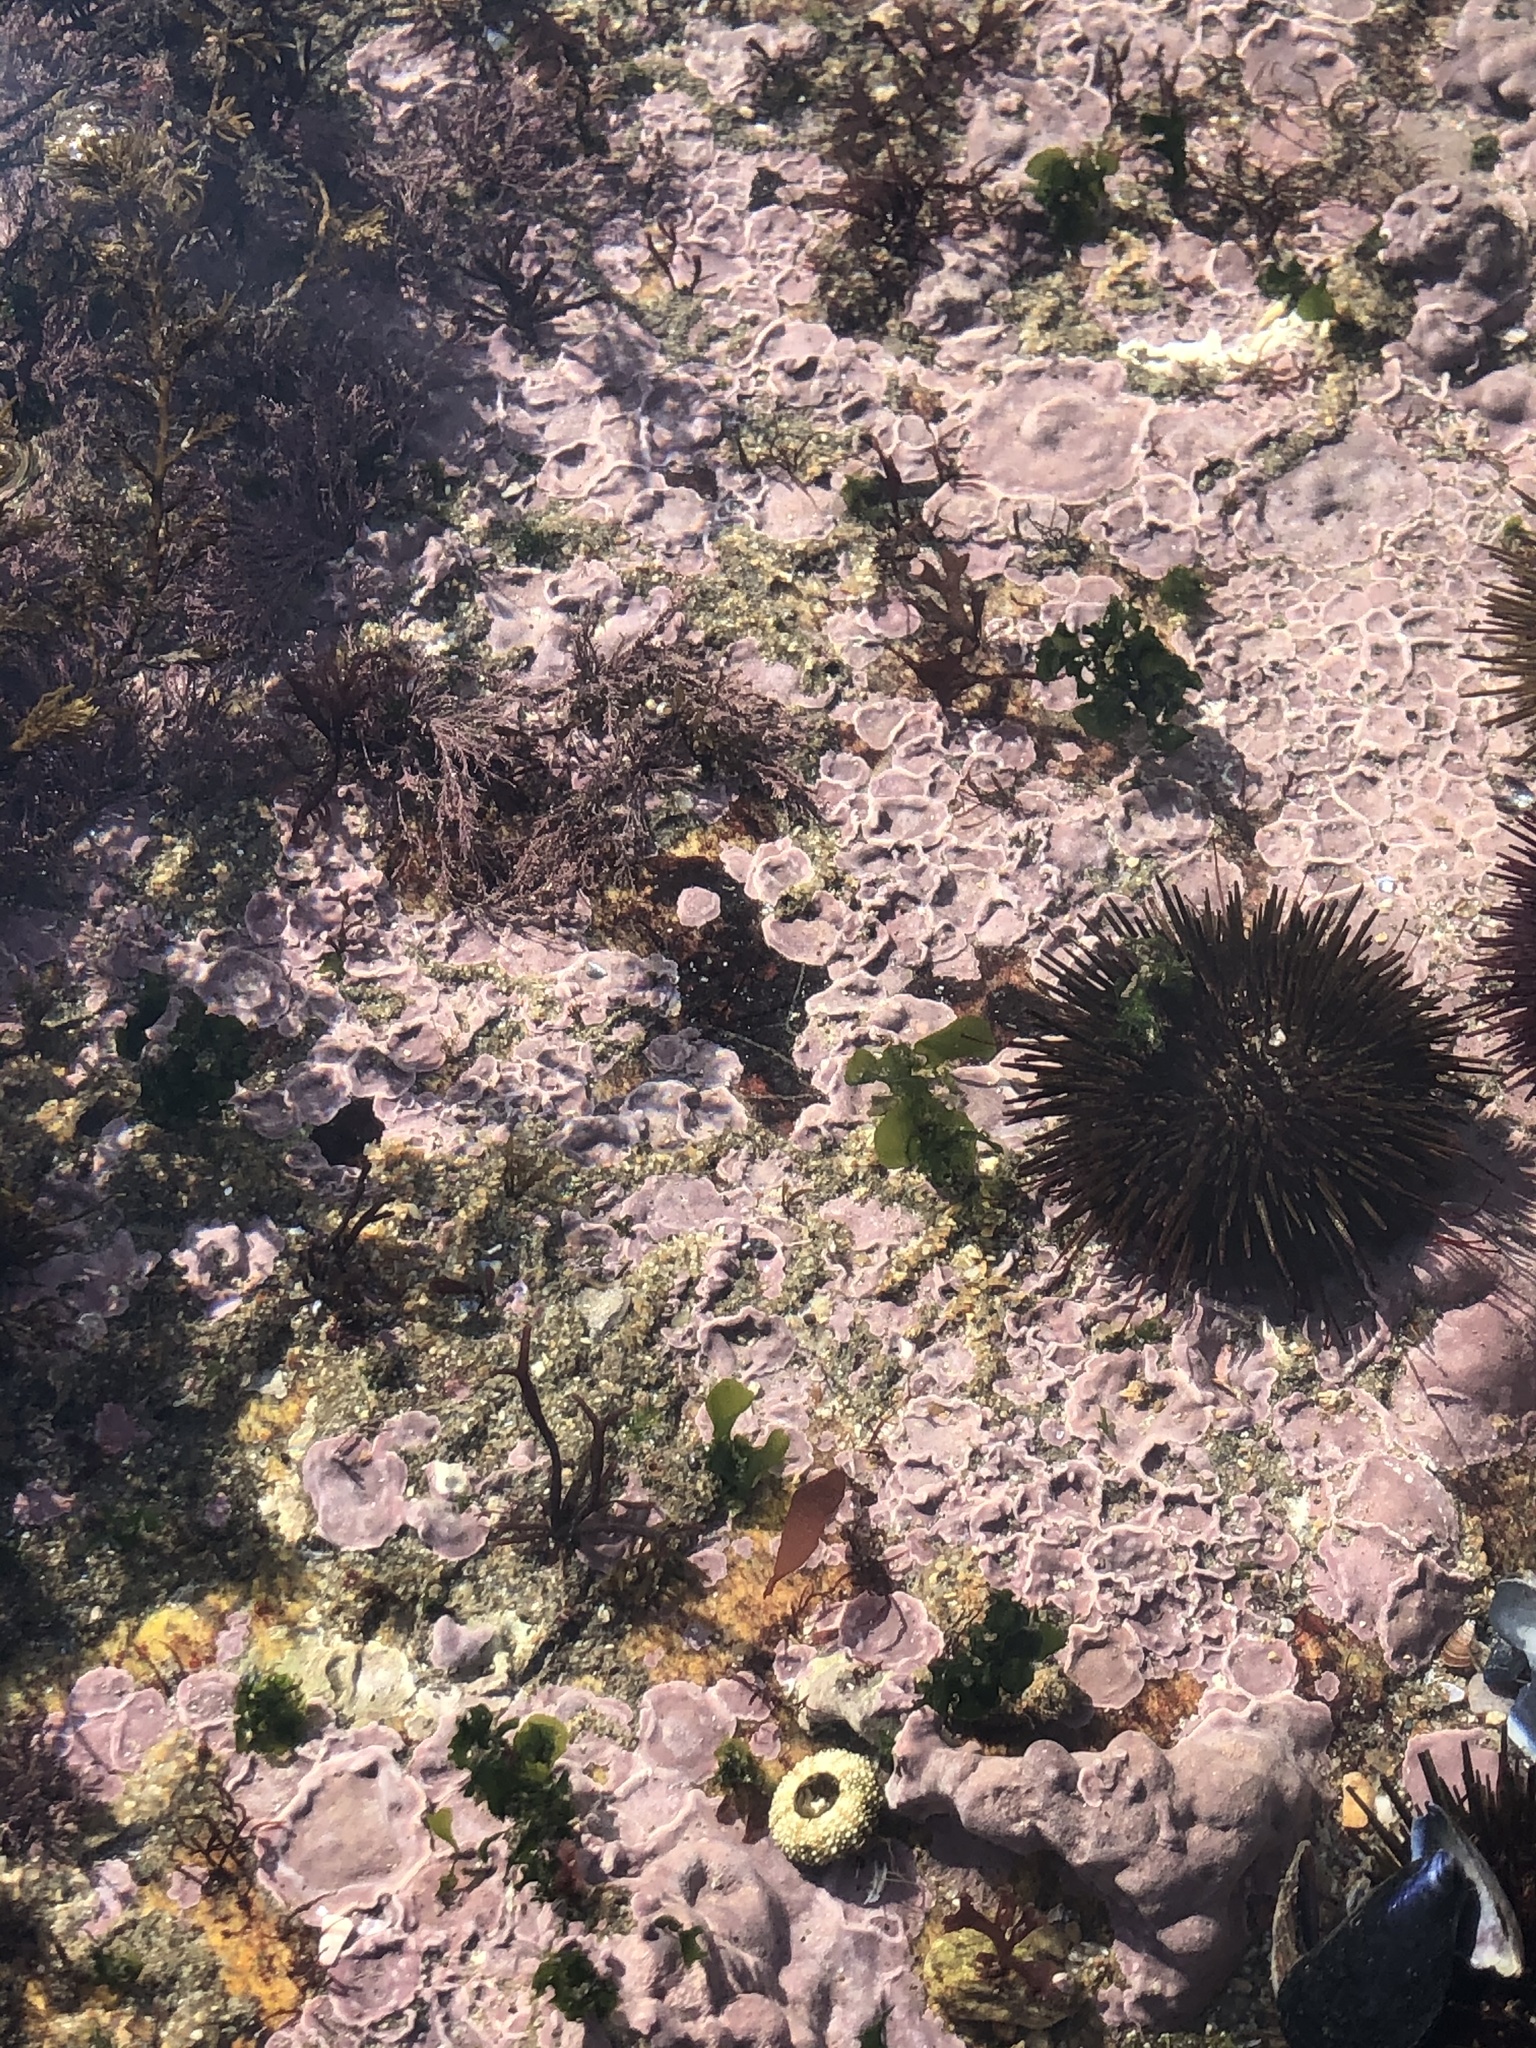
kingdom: Animalia
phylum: Echinodermata
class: Echinoidea
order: Camarodonta
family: Parechinidae
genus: Paracentrotus
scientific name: Paracentrotus lividus
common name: Purple sea urchin
